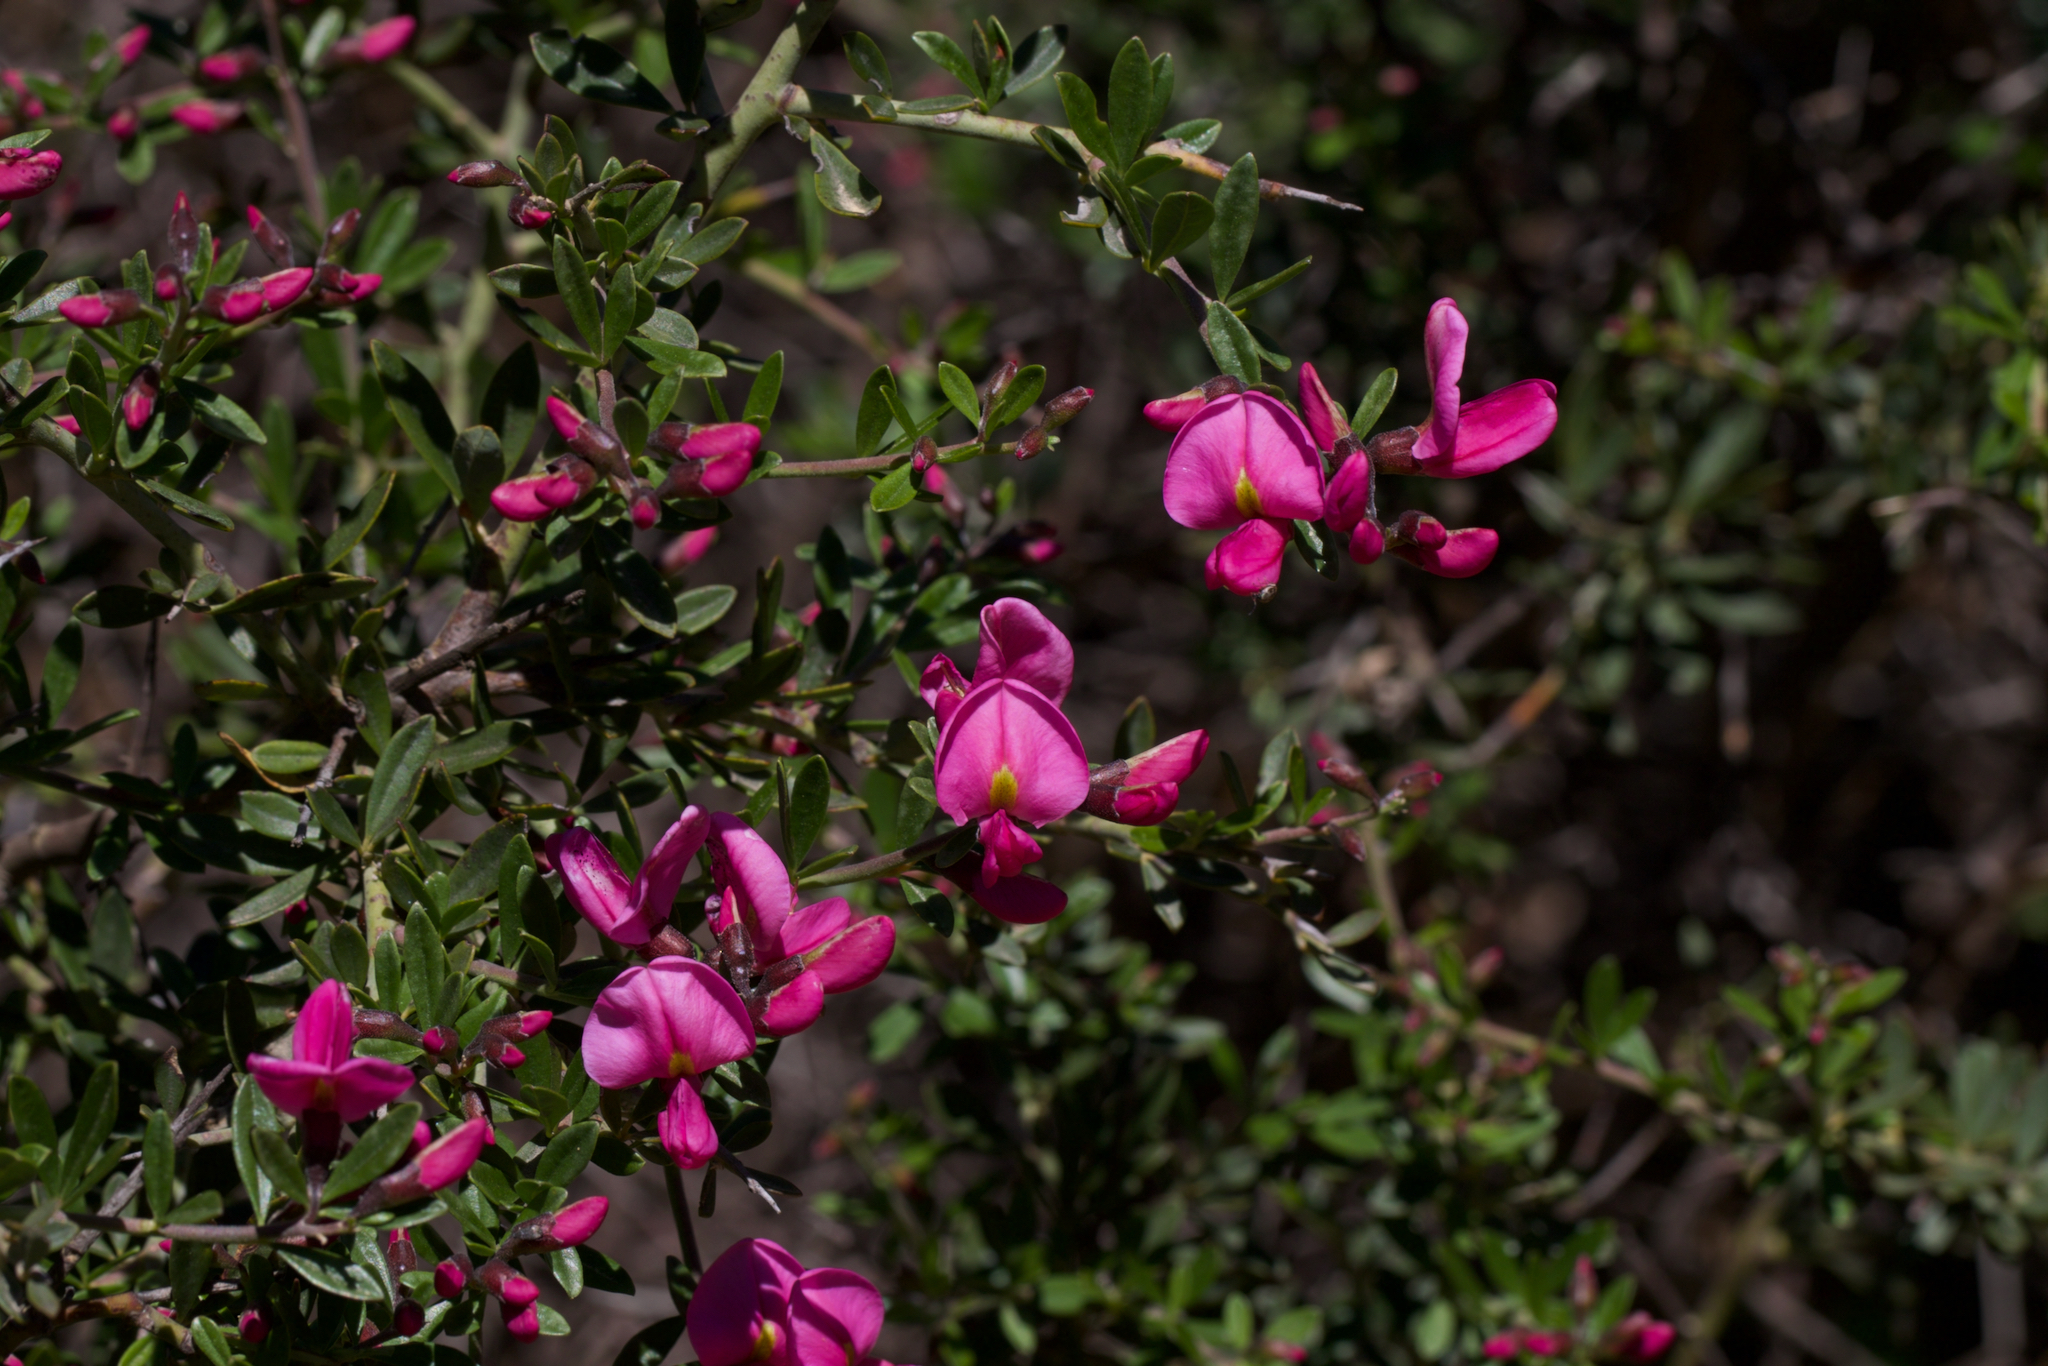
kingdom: Plantae
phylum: Tracheophyta
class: Magnoliopsida
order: Fabales
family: Fabaceae
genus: Pickeringia
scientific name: Pickeringia montana
